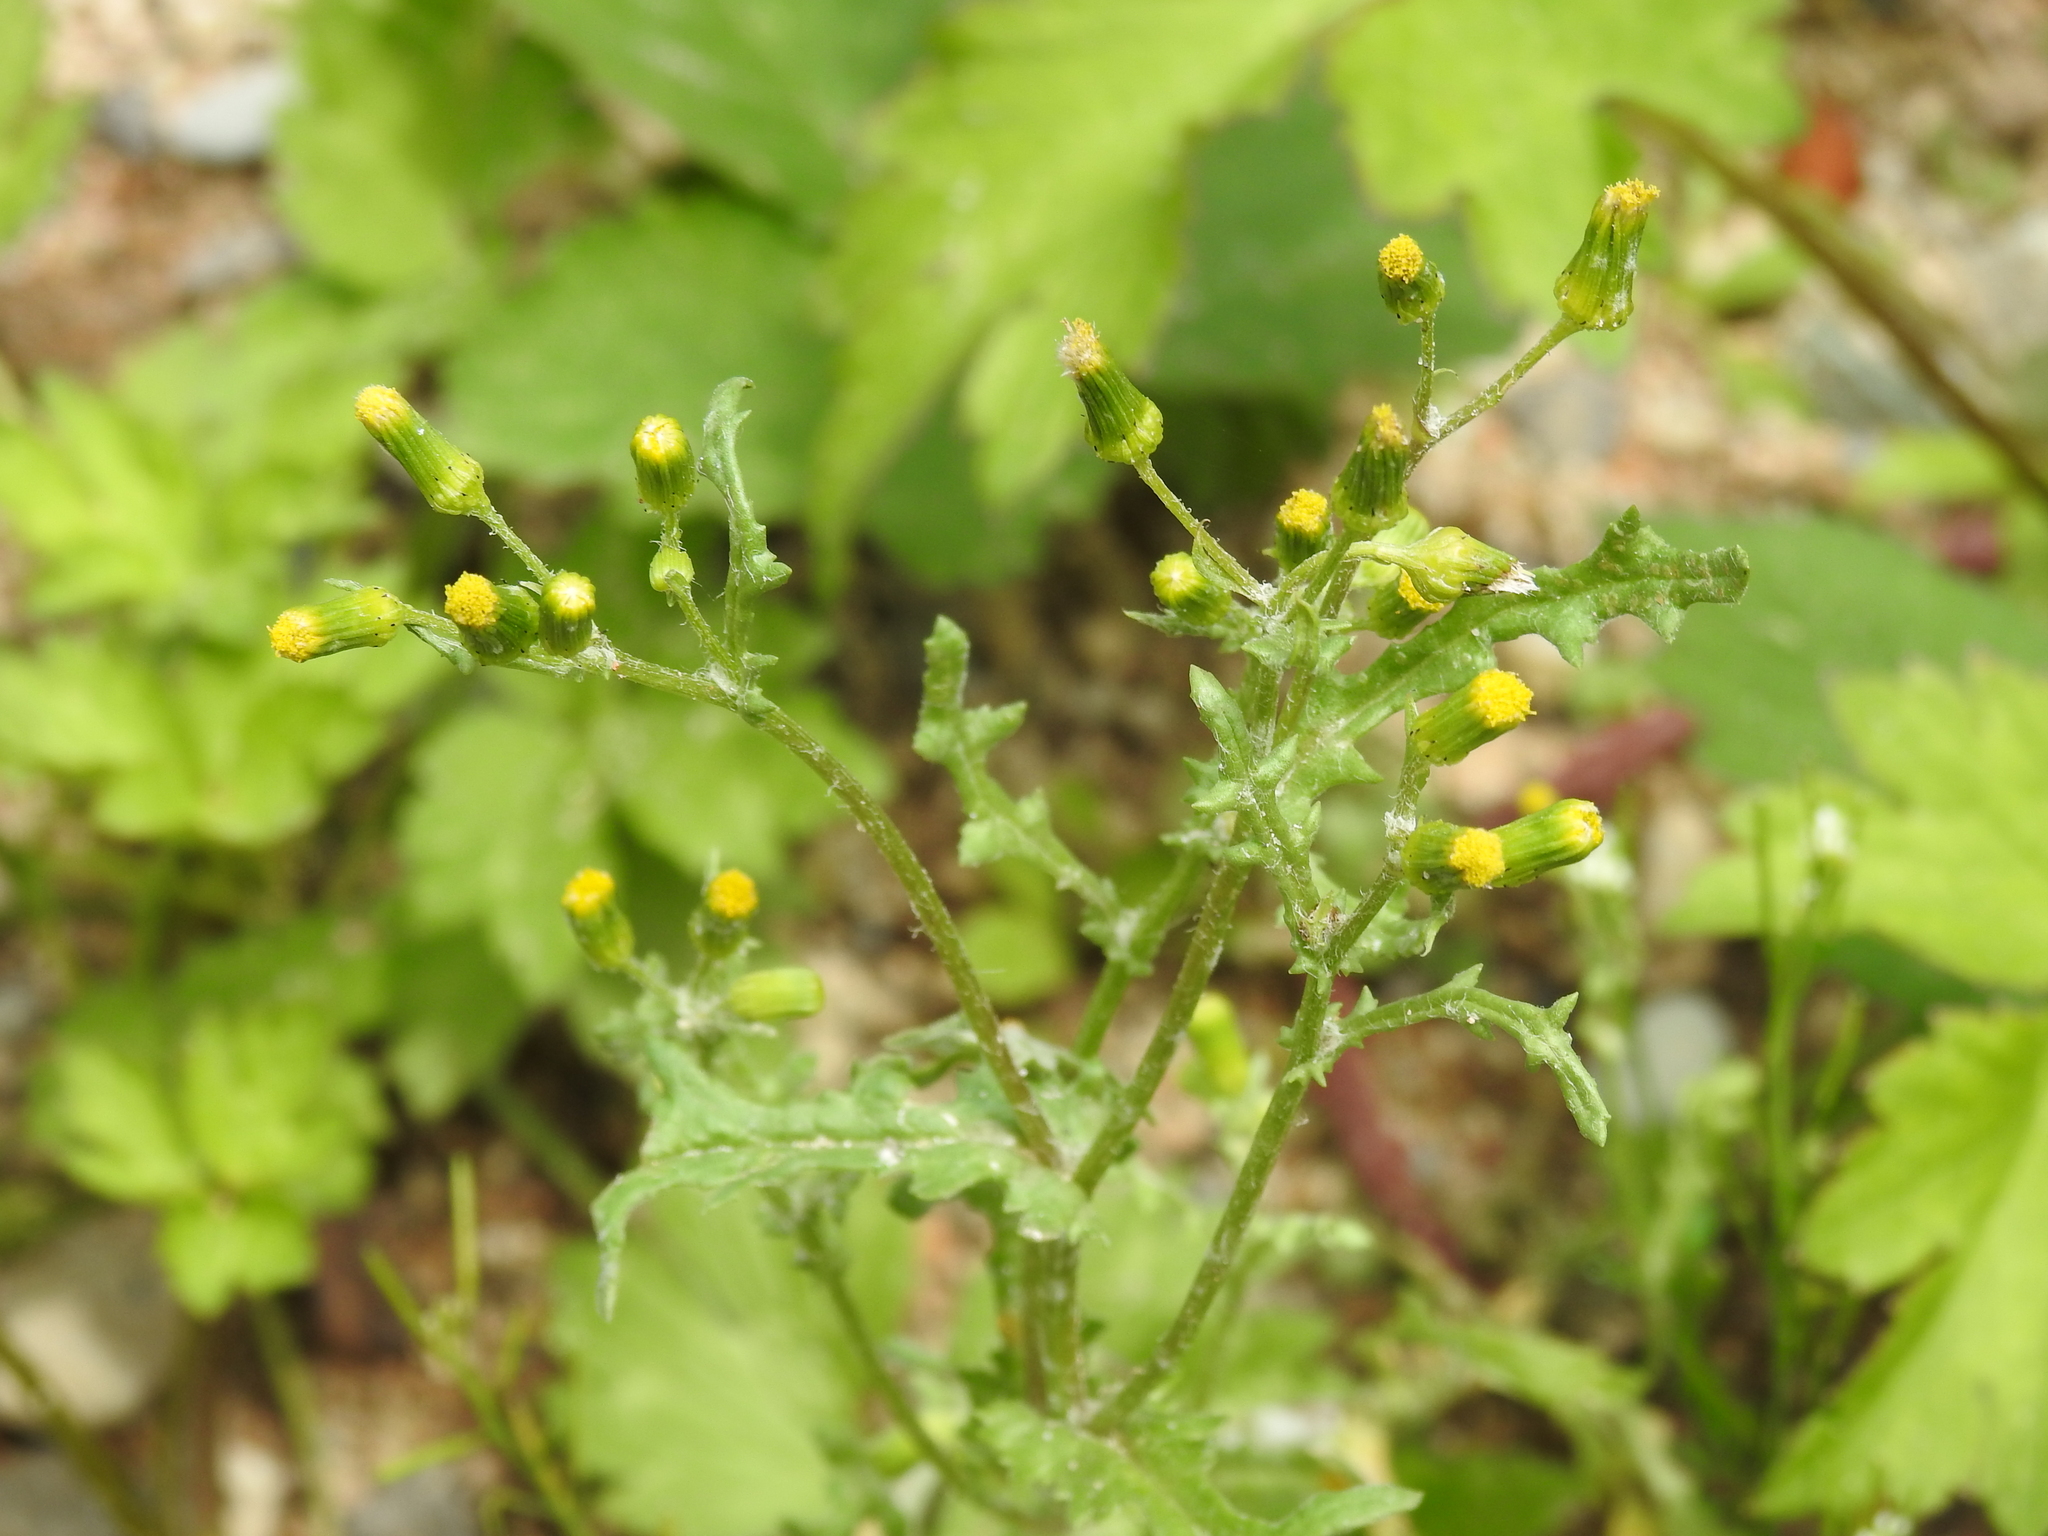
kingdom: Plantae
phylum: Tracheophyta
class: Magnoliopsida
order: Asterales
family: Asteraceae
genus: Senecio
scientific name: Senecio vulgaris
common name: Old-man-in-the-spring
